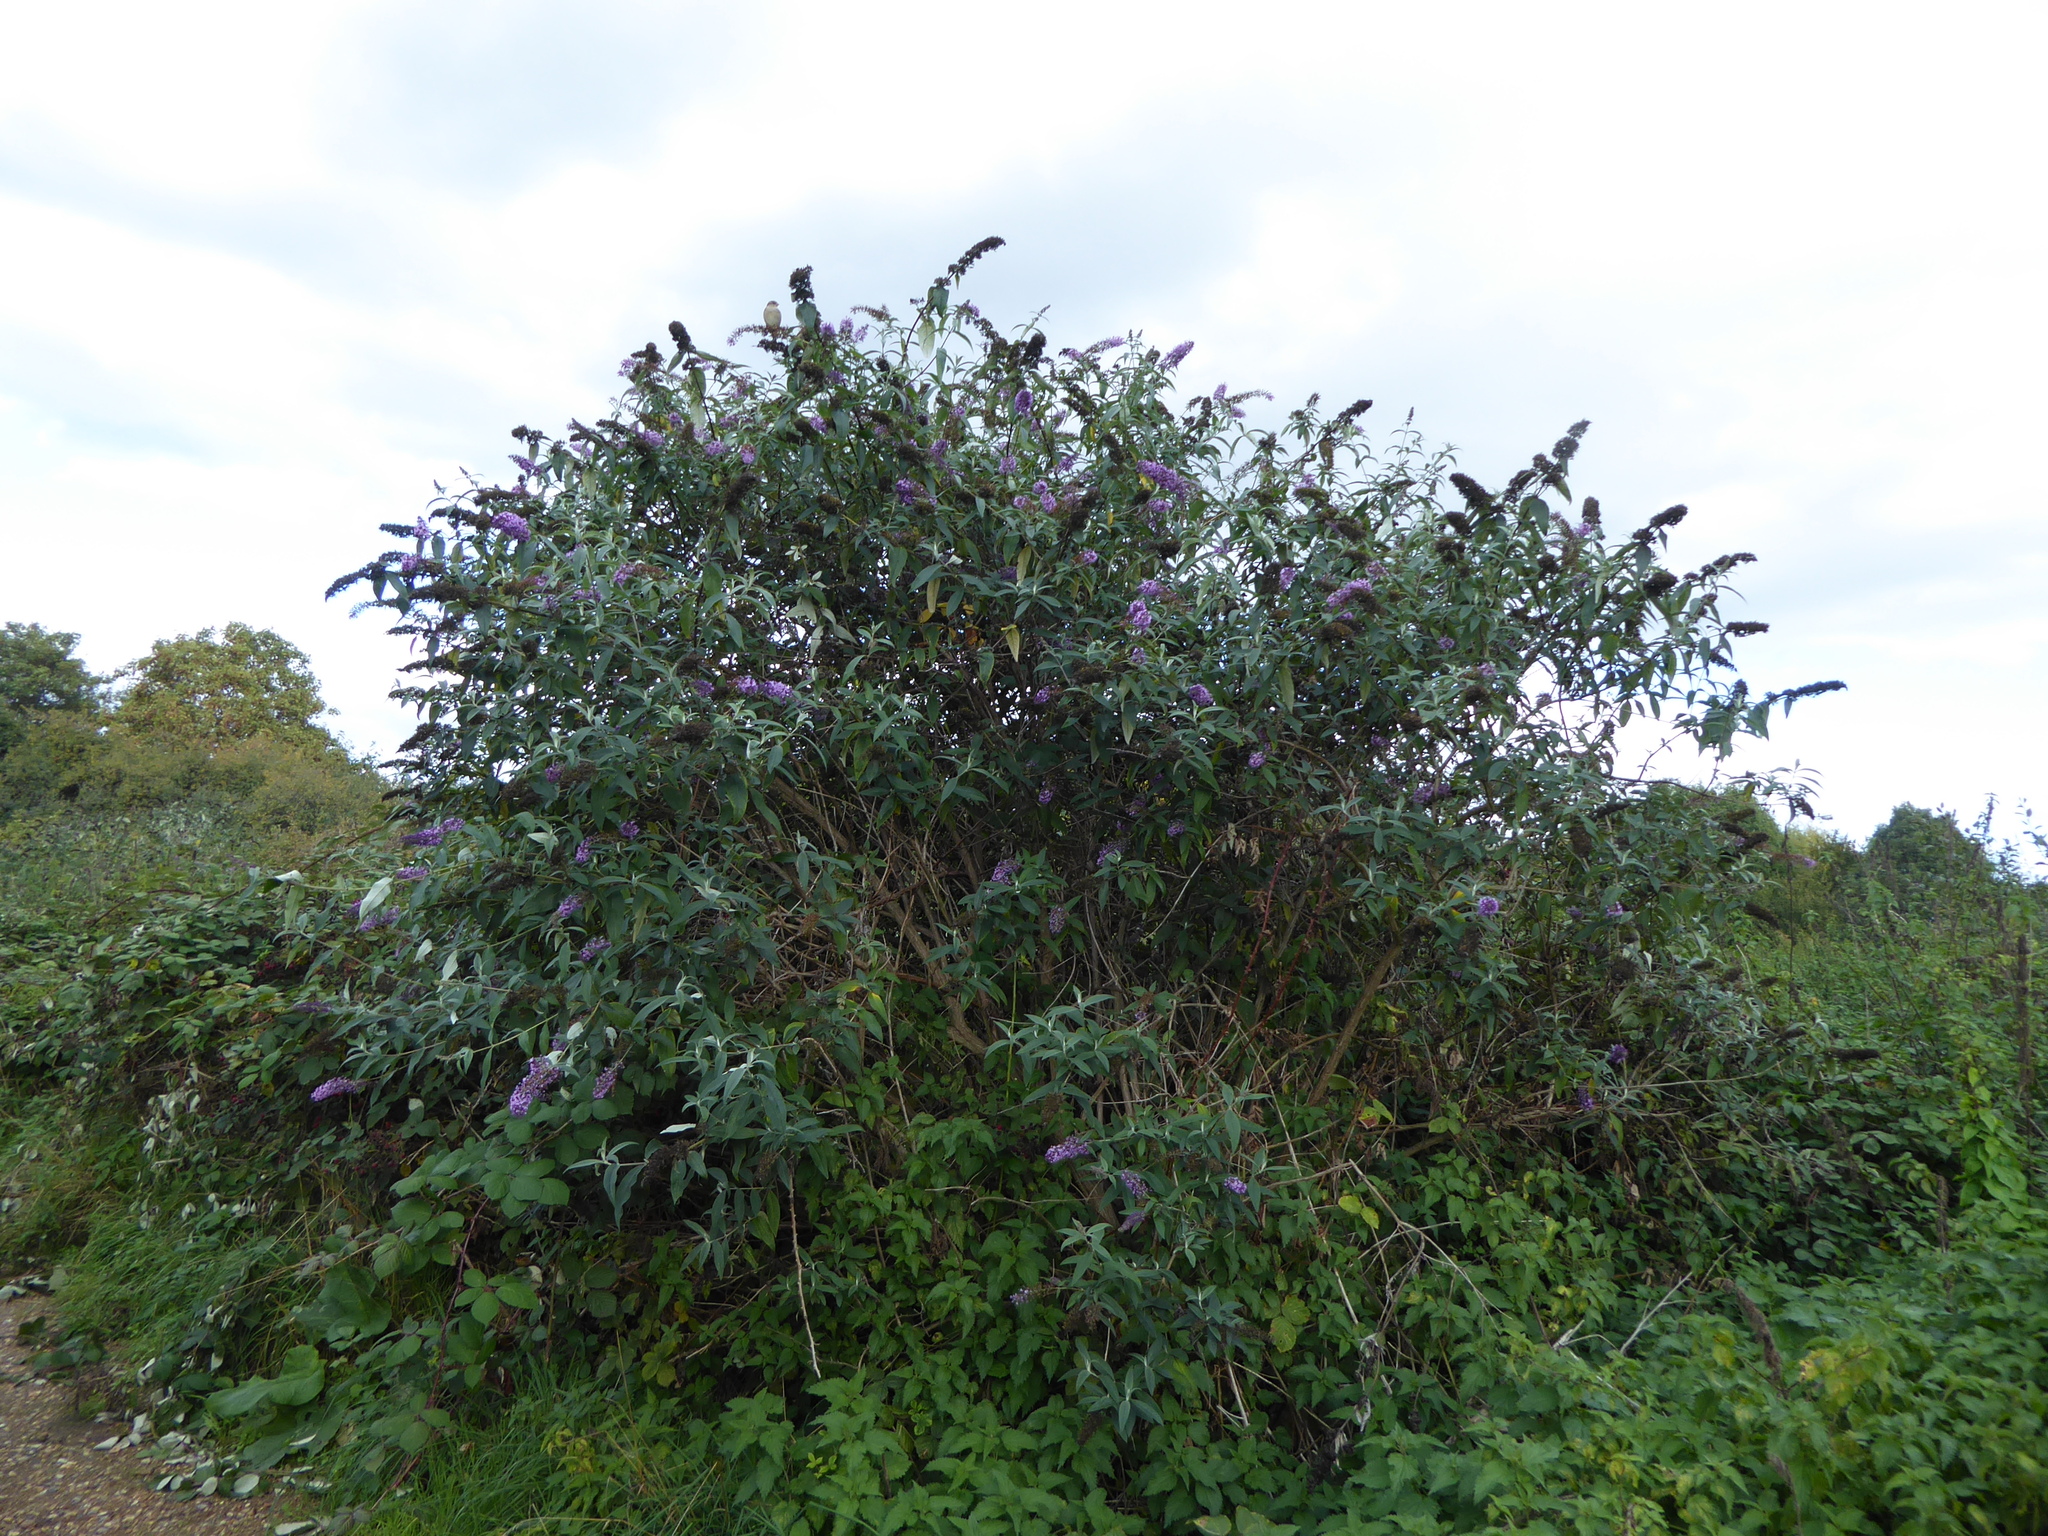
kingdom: Plantae
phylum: Tracheophyta
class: Magnoliopsida
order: Lamiales
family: Scrophulariaceae
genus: Buddleja
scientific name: Buddleja davidii
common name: Butterfly-bush
